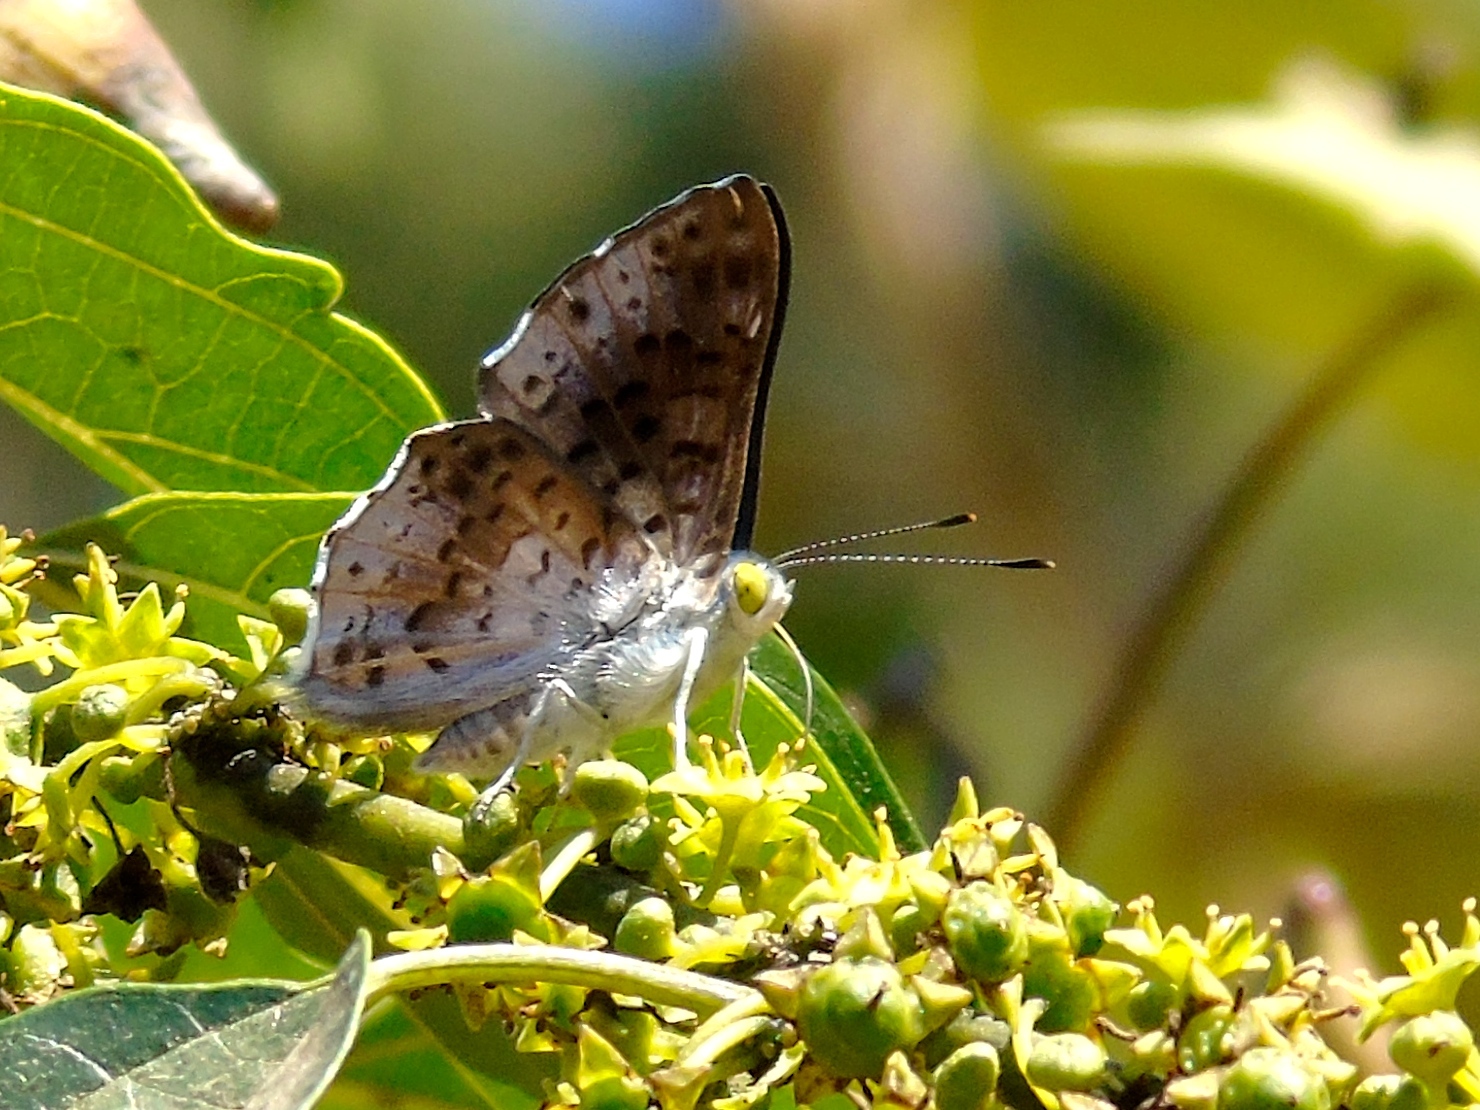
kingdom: Animalia
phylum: Arthropoda
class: Insecta
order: Lepidoptera
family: Riodinidae
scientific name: Riodinidae
